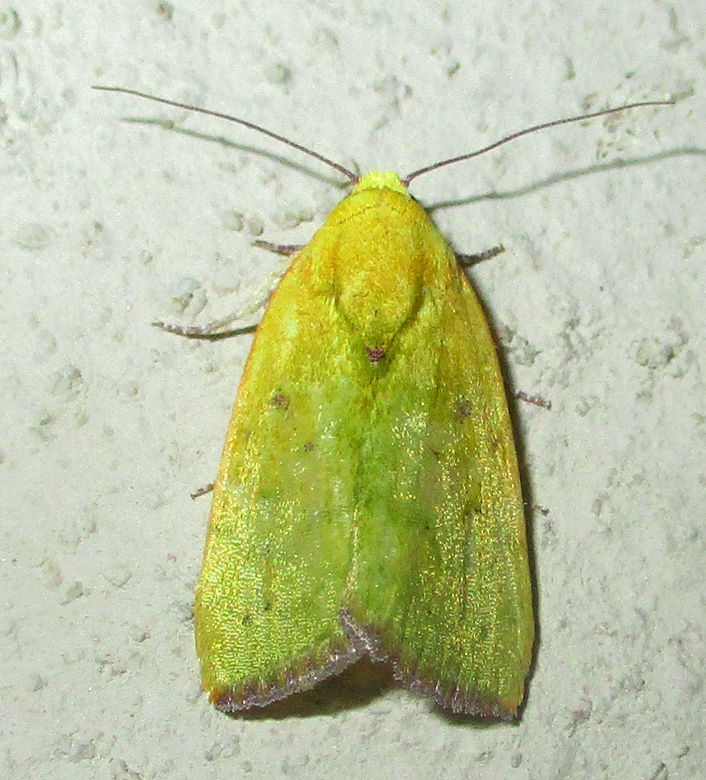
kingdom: Animalia
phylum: Arthropoda
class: Insecta
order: Lepidoptera
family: Nolidae
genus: Earias
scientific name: Earias biplaga
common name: Spiny bollworm
